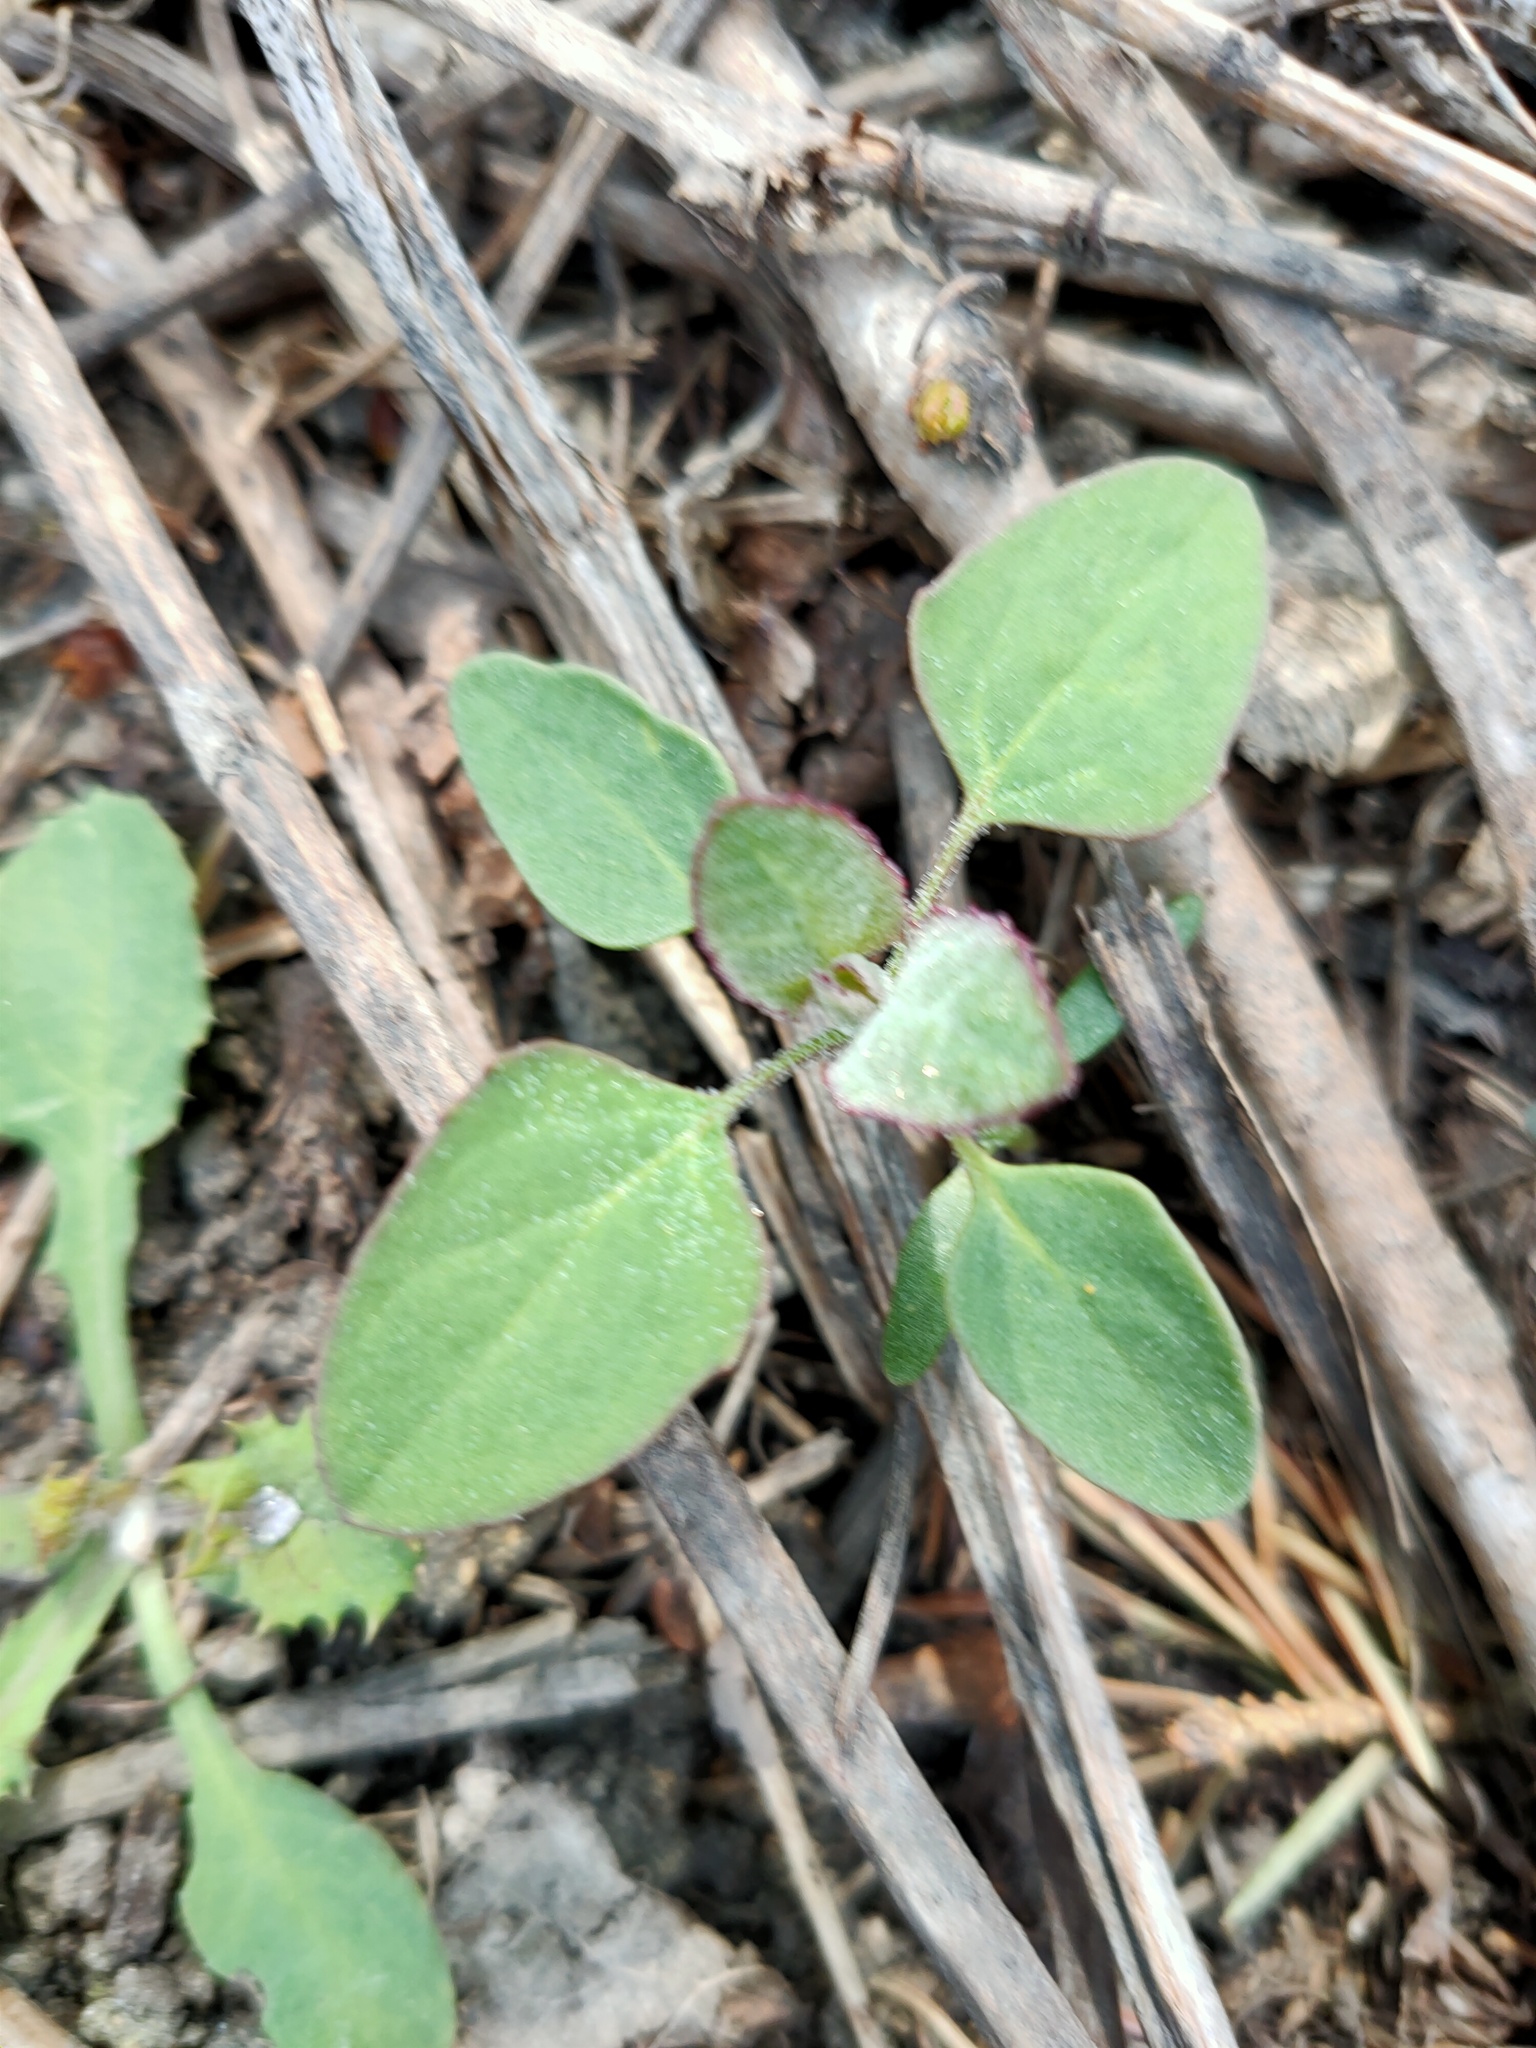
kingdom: Plantae
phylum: Tracheophyta
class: Magnoliopsida
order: Caryophyllales
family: Amaranthaceae
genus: Chenopodium
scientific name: Chenopodium album
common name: Fat-hen
